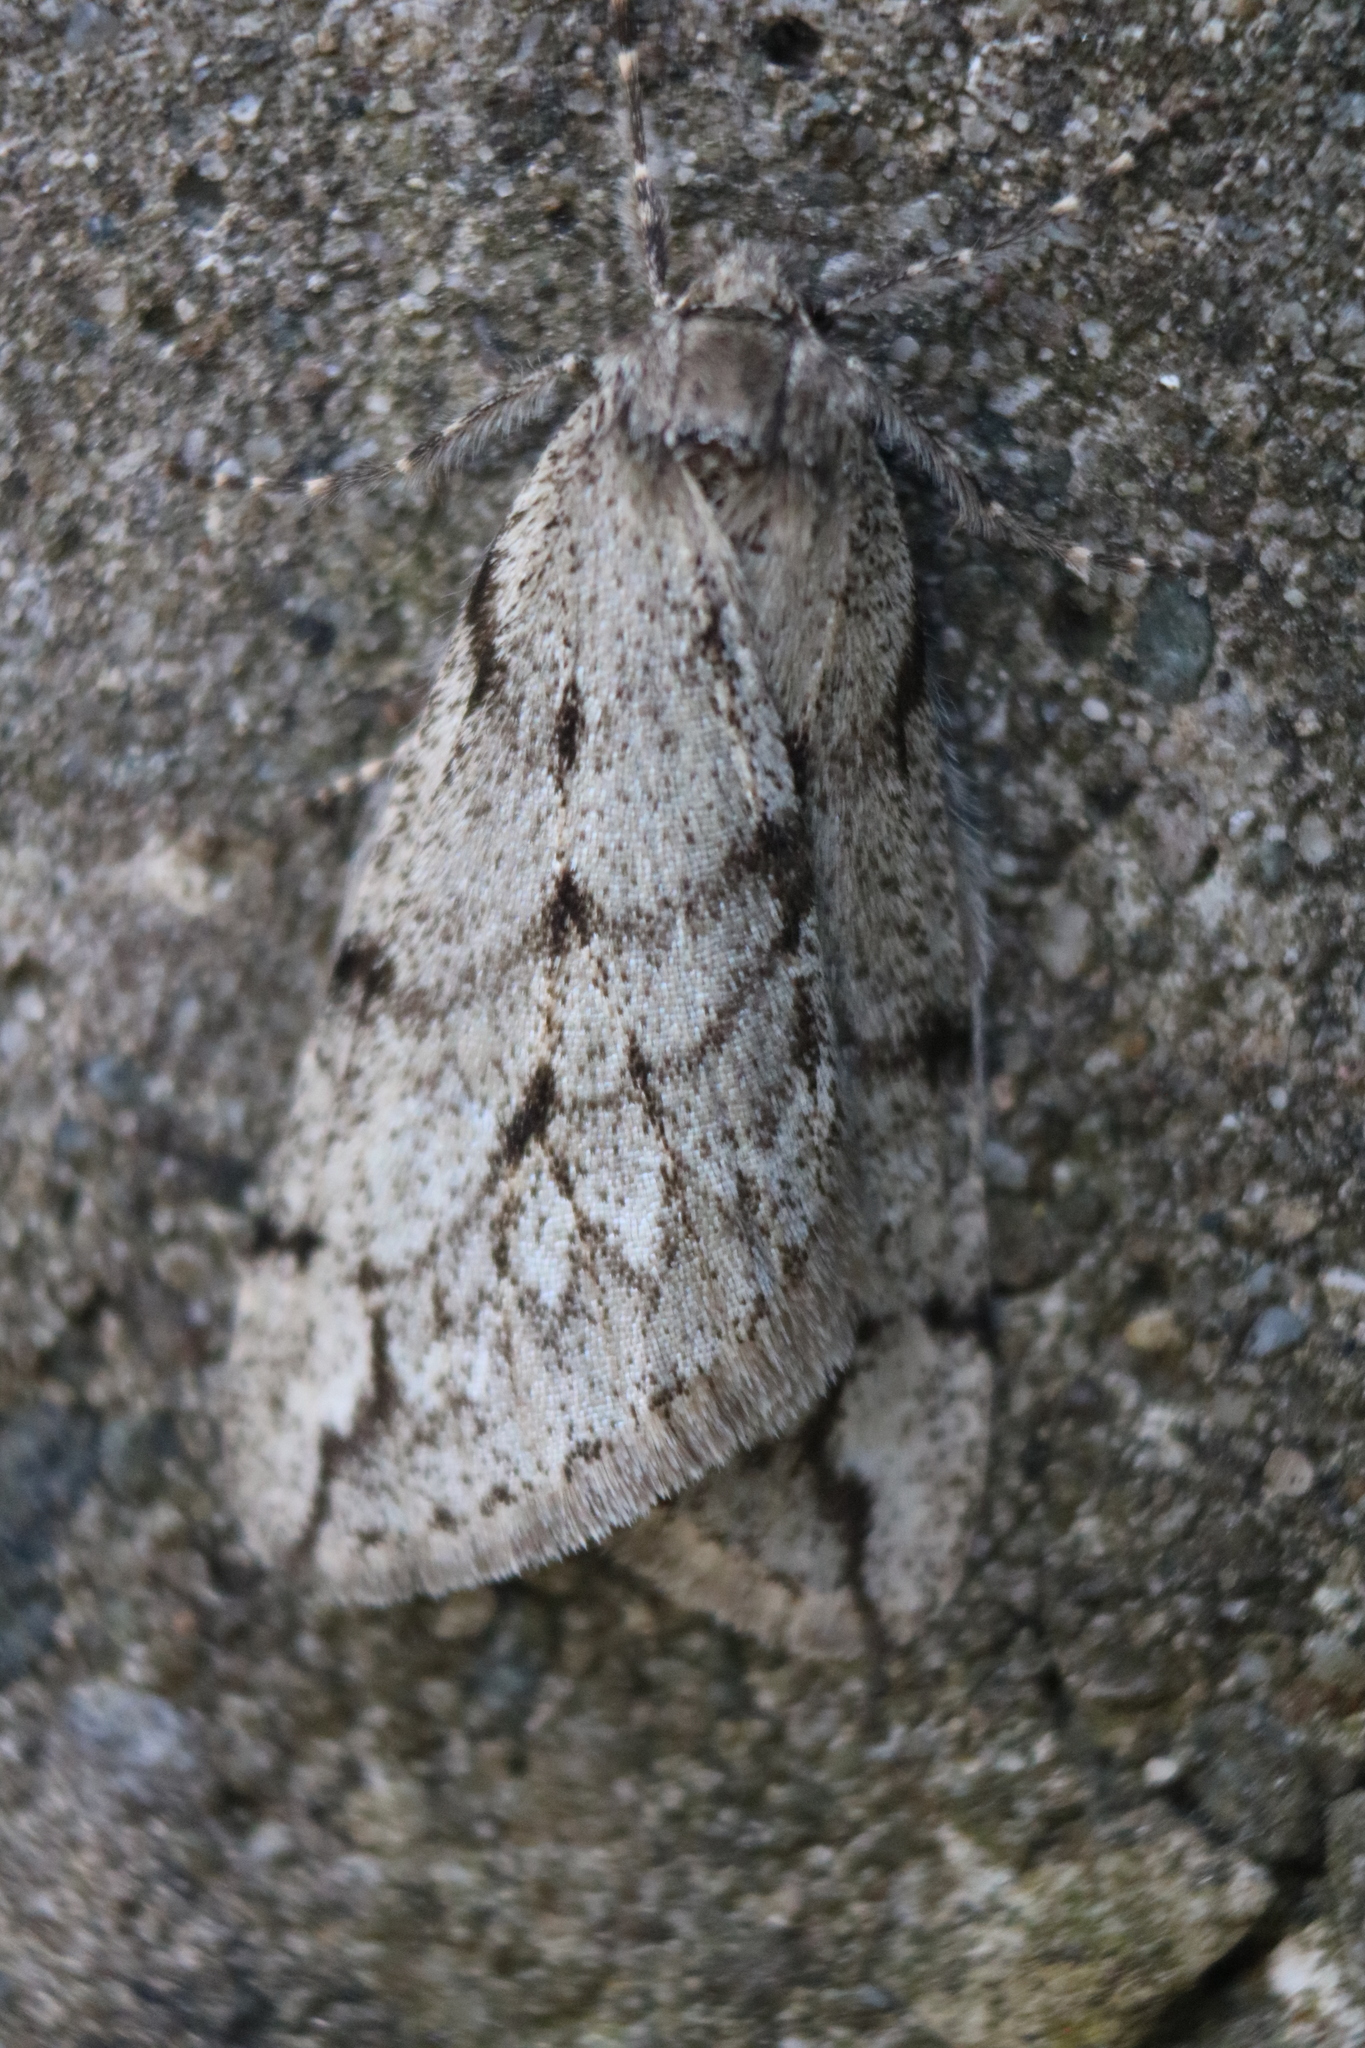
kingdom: Animalia
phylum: Arthropoda
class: Insecta
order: Lepidoptera
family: Geometridae
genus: Paleacrita
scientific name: Paleacrita vernata
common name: Spring cankerworm
